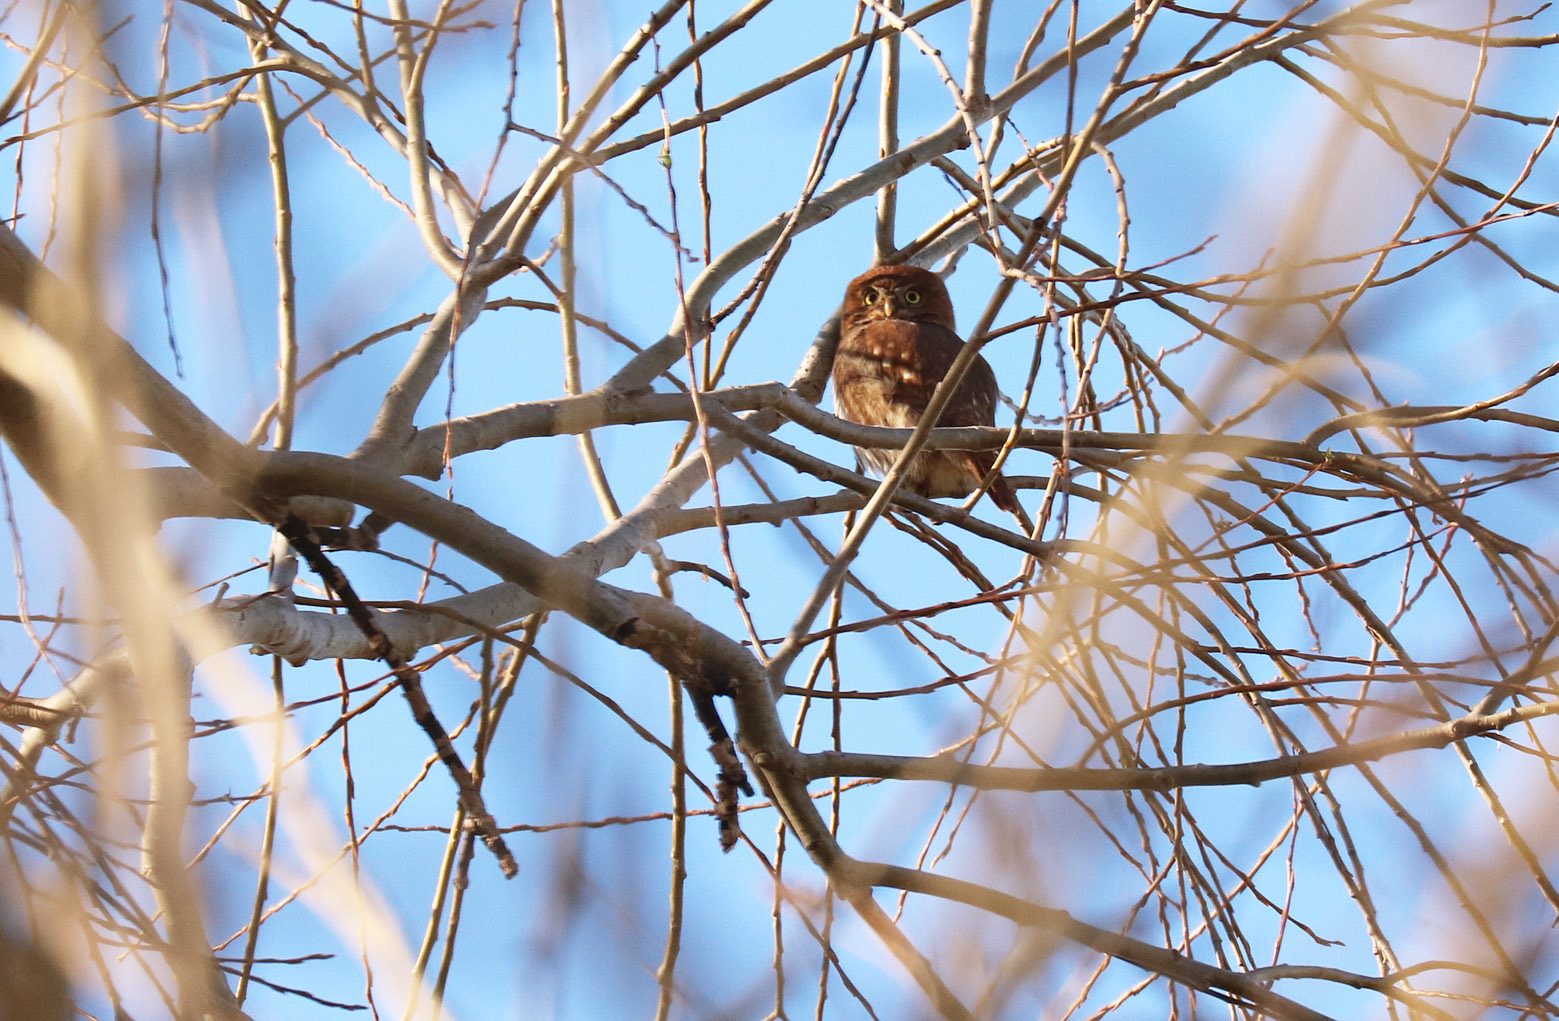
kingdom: Animalia
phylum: Chordata
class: Aves
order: Strigiformes
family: Strigidae
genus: Glaucidium
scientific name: Glaucidium brasilianum
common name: Ferruginous pygmy-owl
